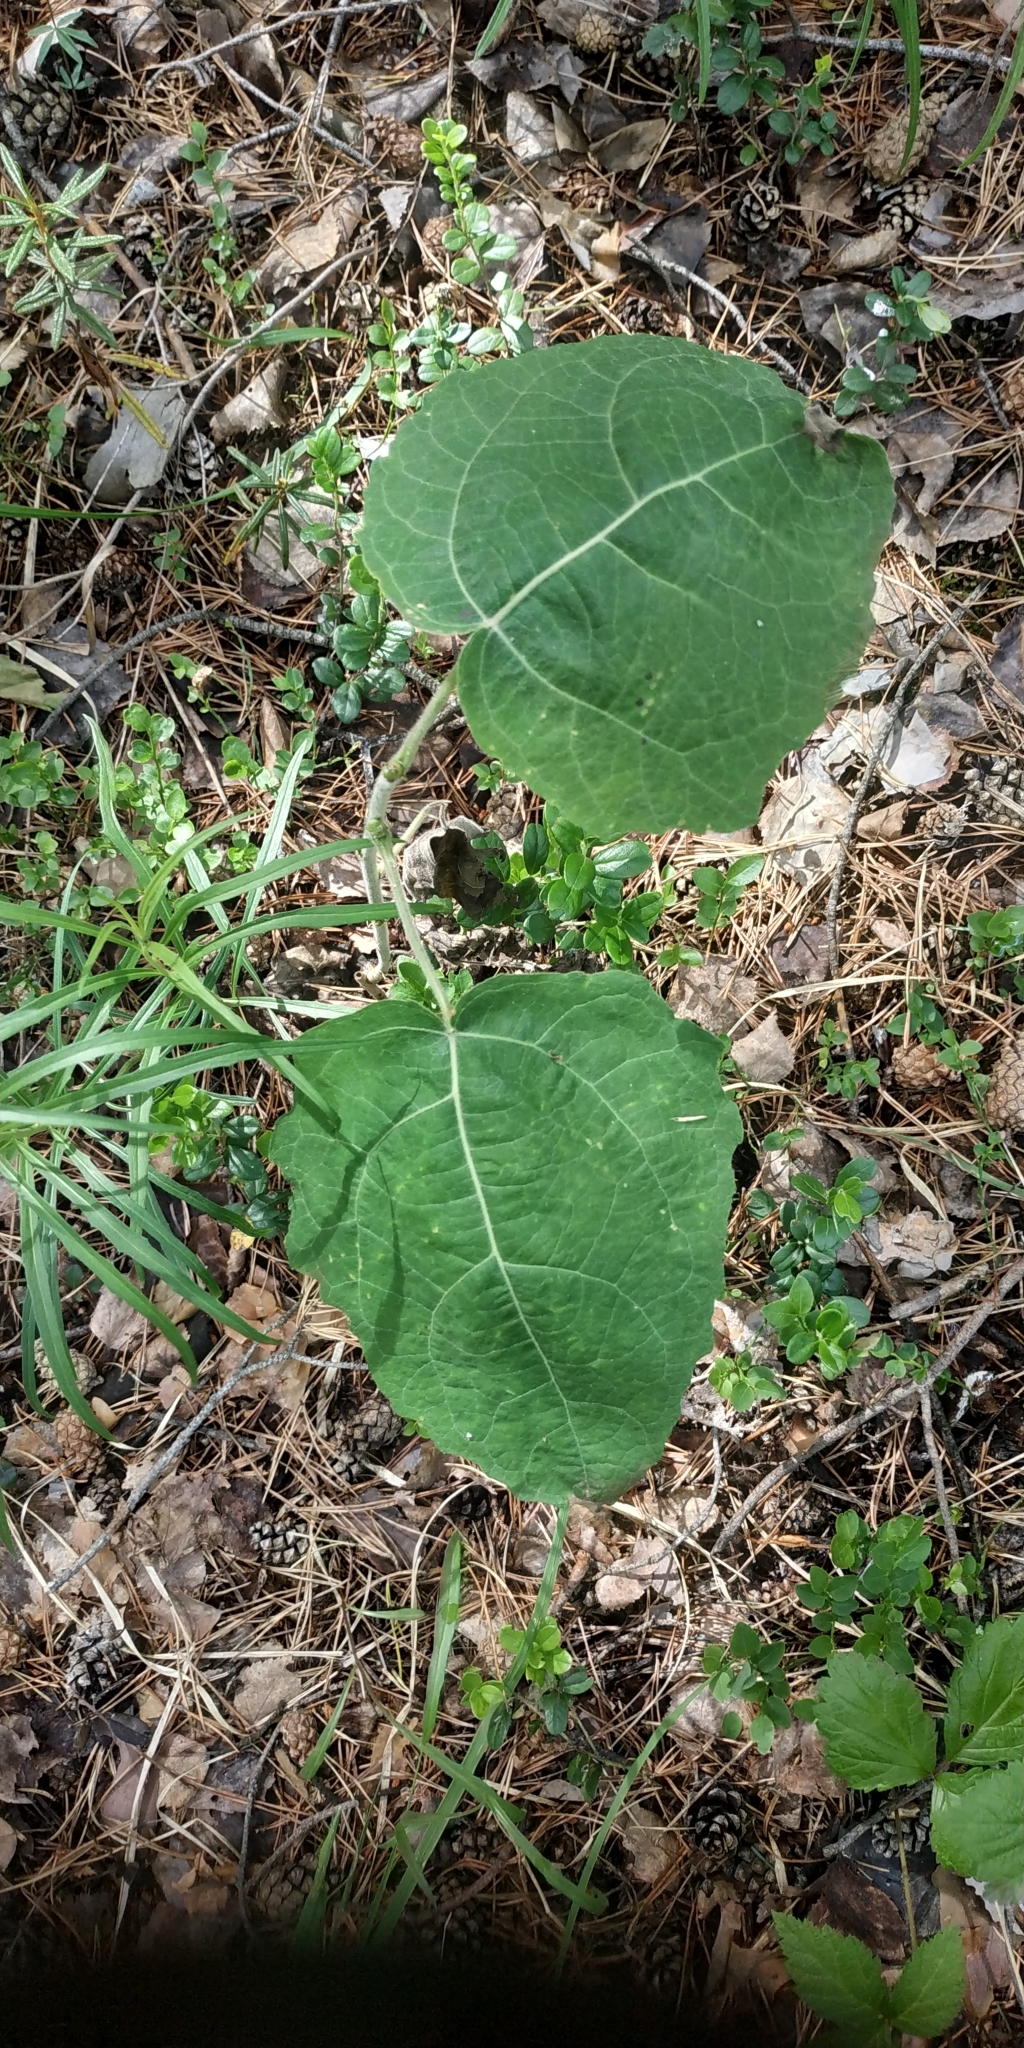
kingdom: Plantae
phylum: Tracheophyta
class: Magnoliopsida
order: Malpighiales
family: Salicaceae
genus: Populus
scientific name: Populus tremula
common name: European aspen
